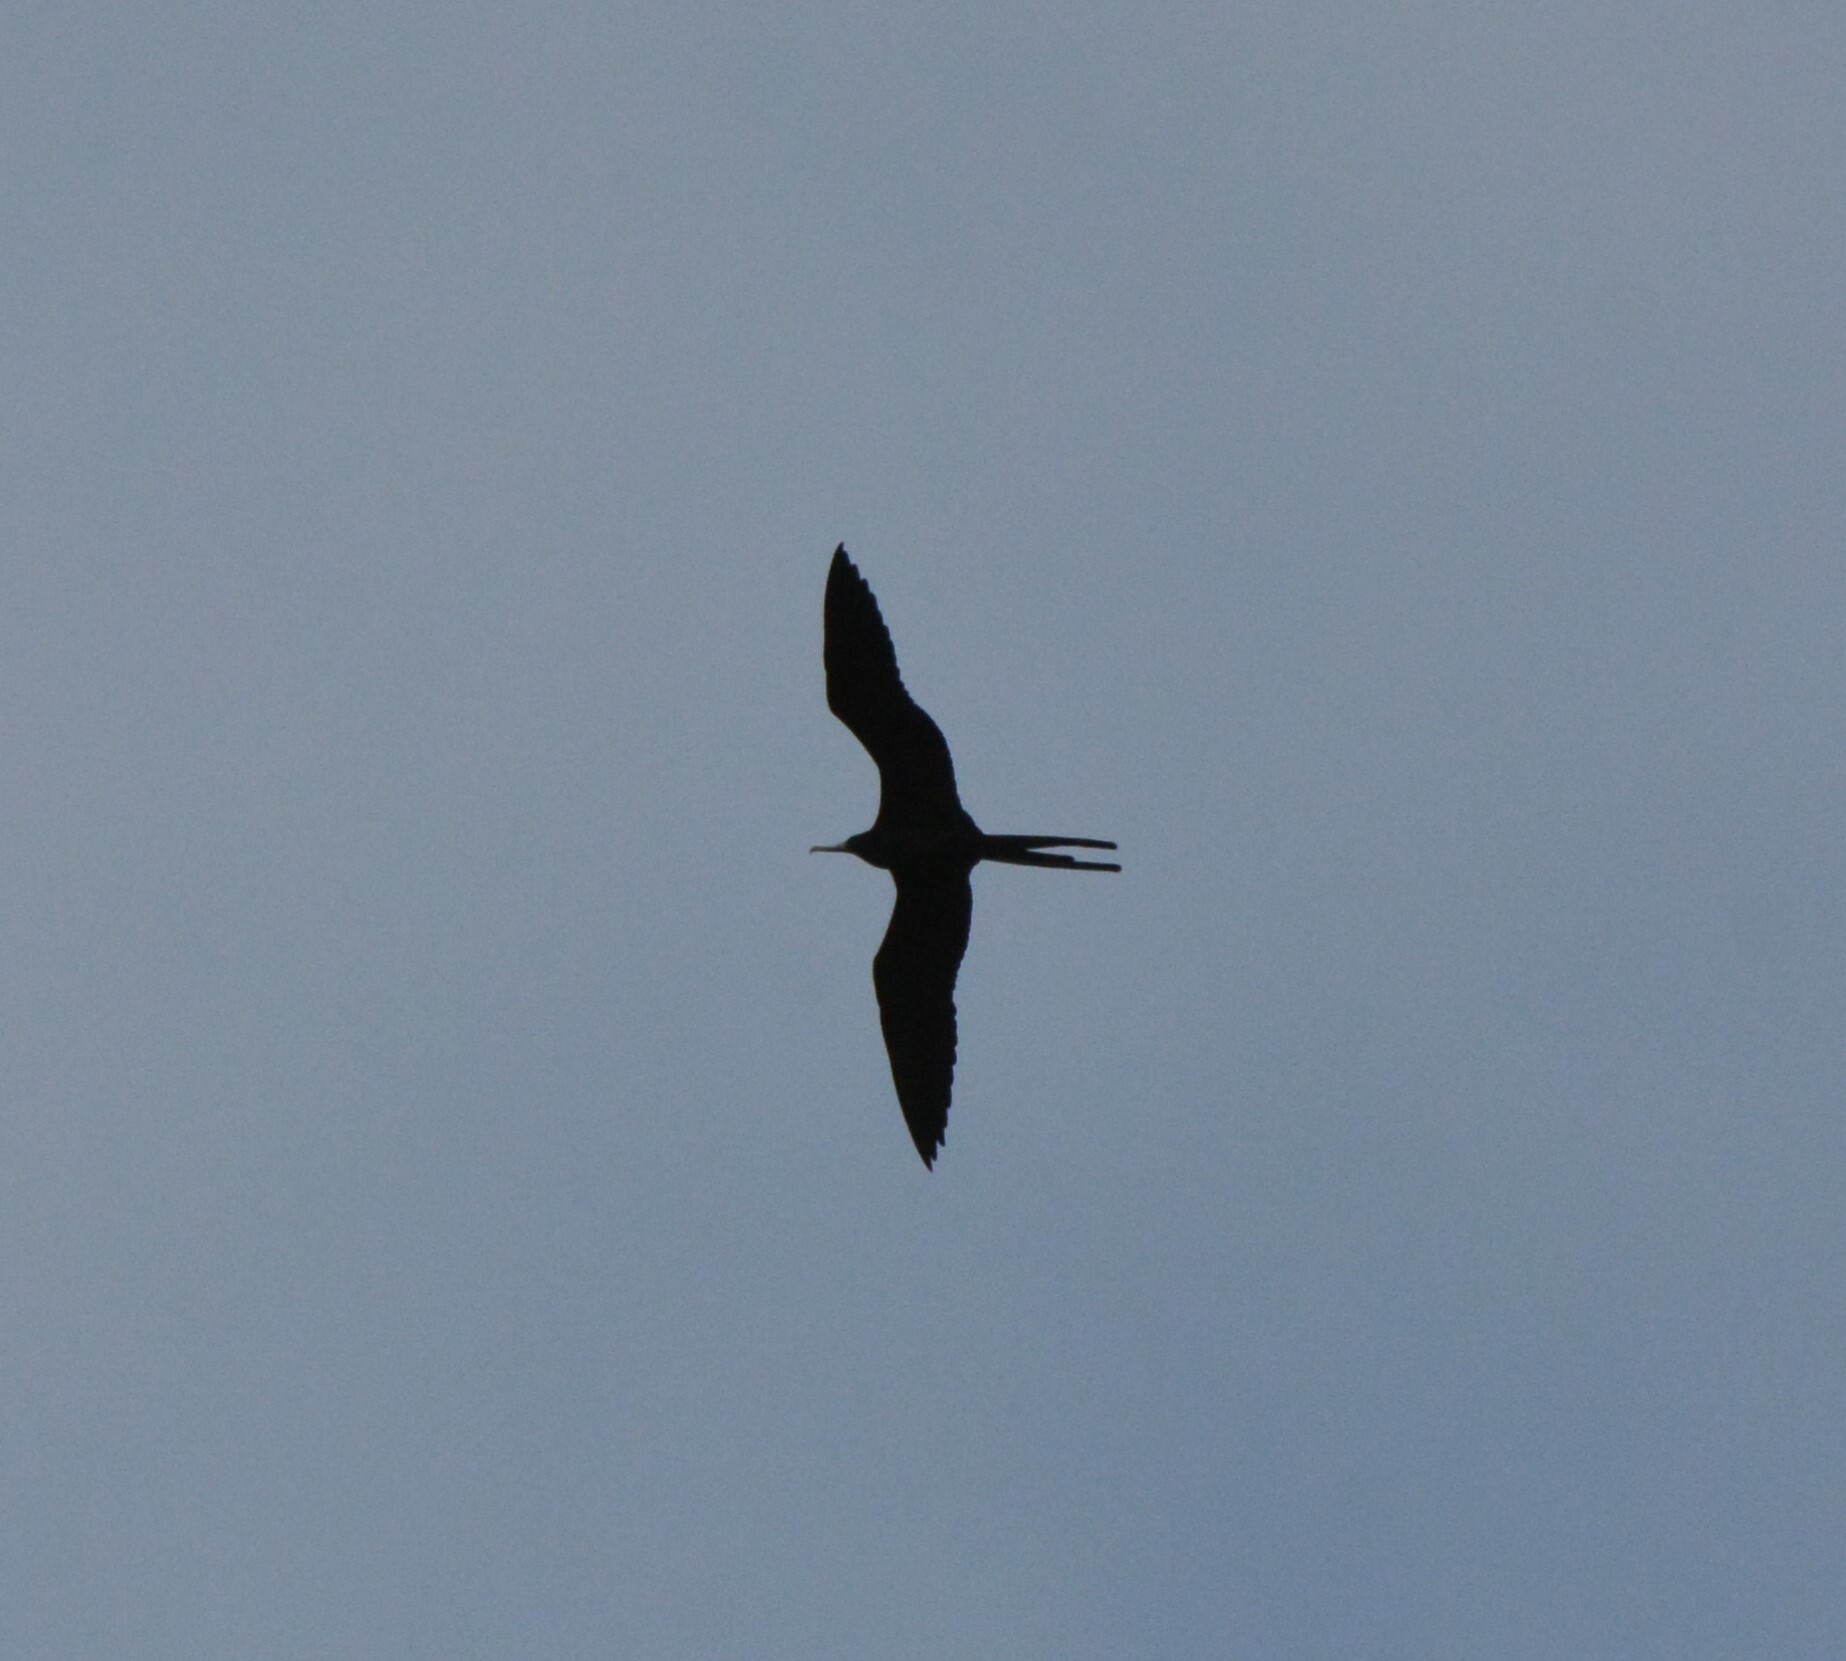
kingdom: Animalia
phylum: Chordata
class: Aves
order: Suliformes
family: Fregatidae
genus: Fregata
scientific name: Fregata magnificens
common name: Magnificent frigatebird
